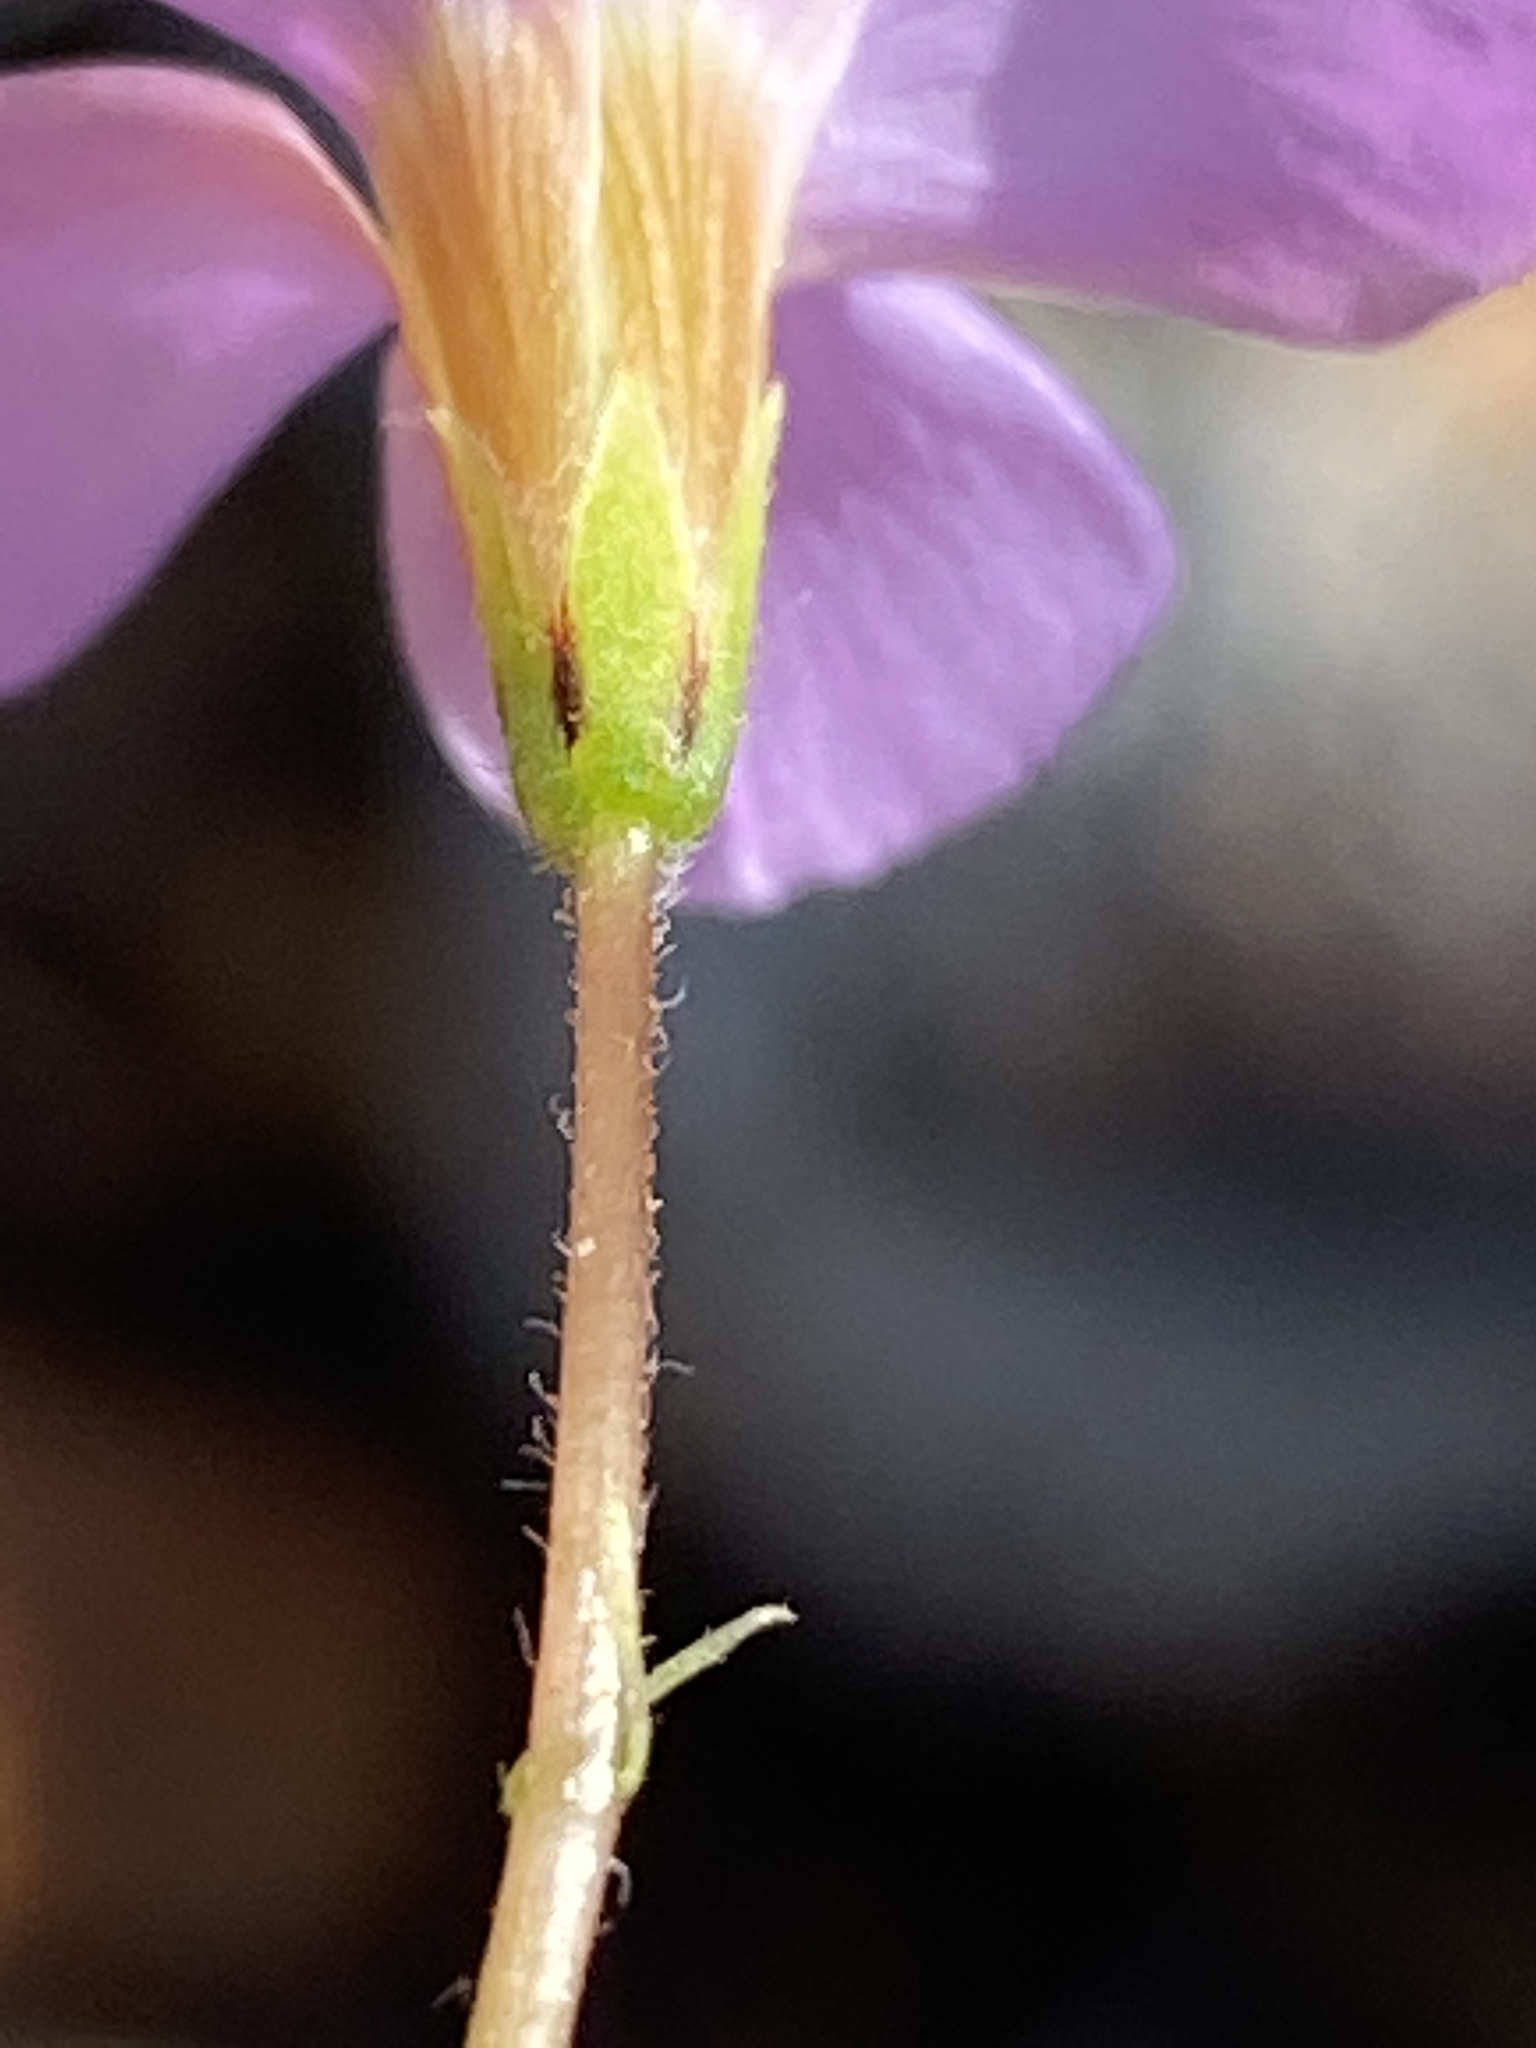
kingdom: Plantae
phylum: Tracheophyta
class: Magnoliopsida
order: Oxalidales
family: Oxalidaceae
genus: Oxalis
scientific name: Oxalis imbricata
